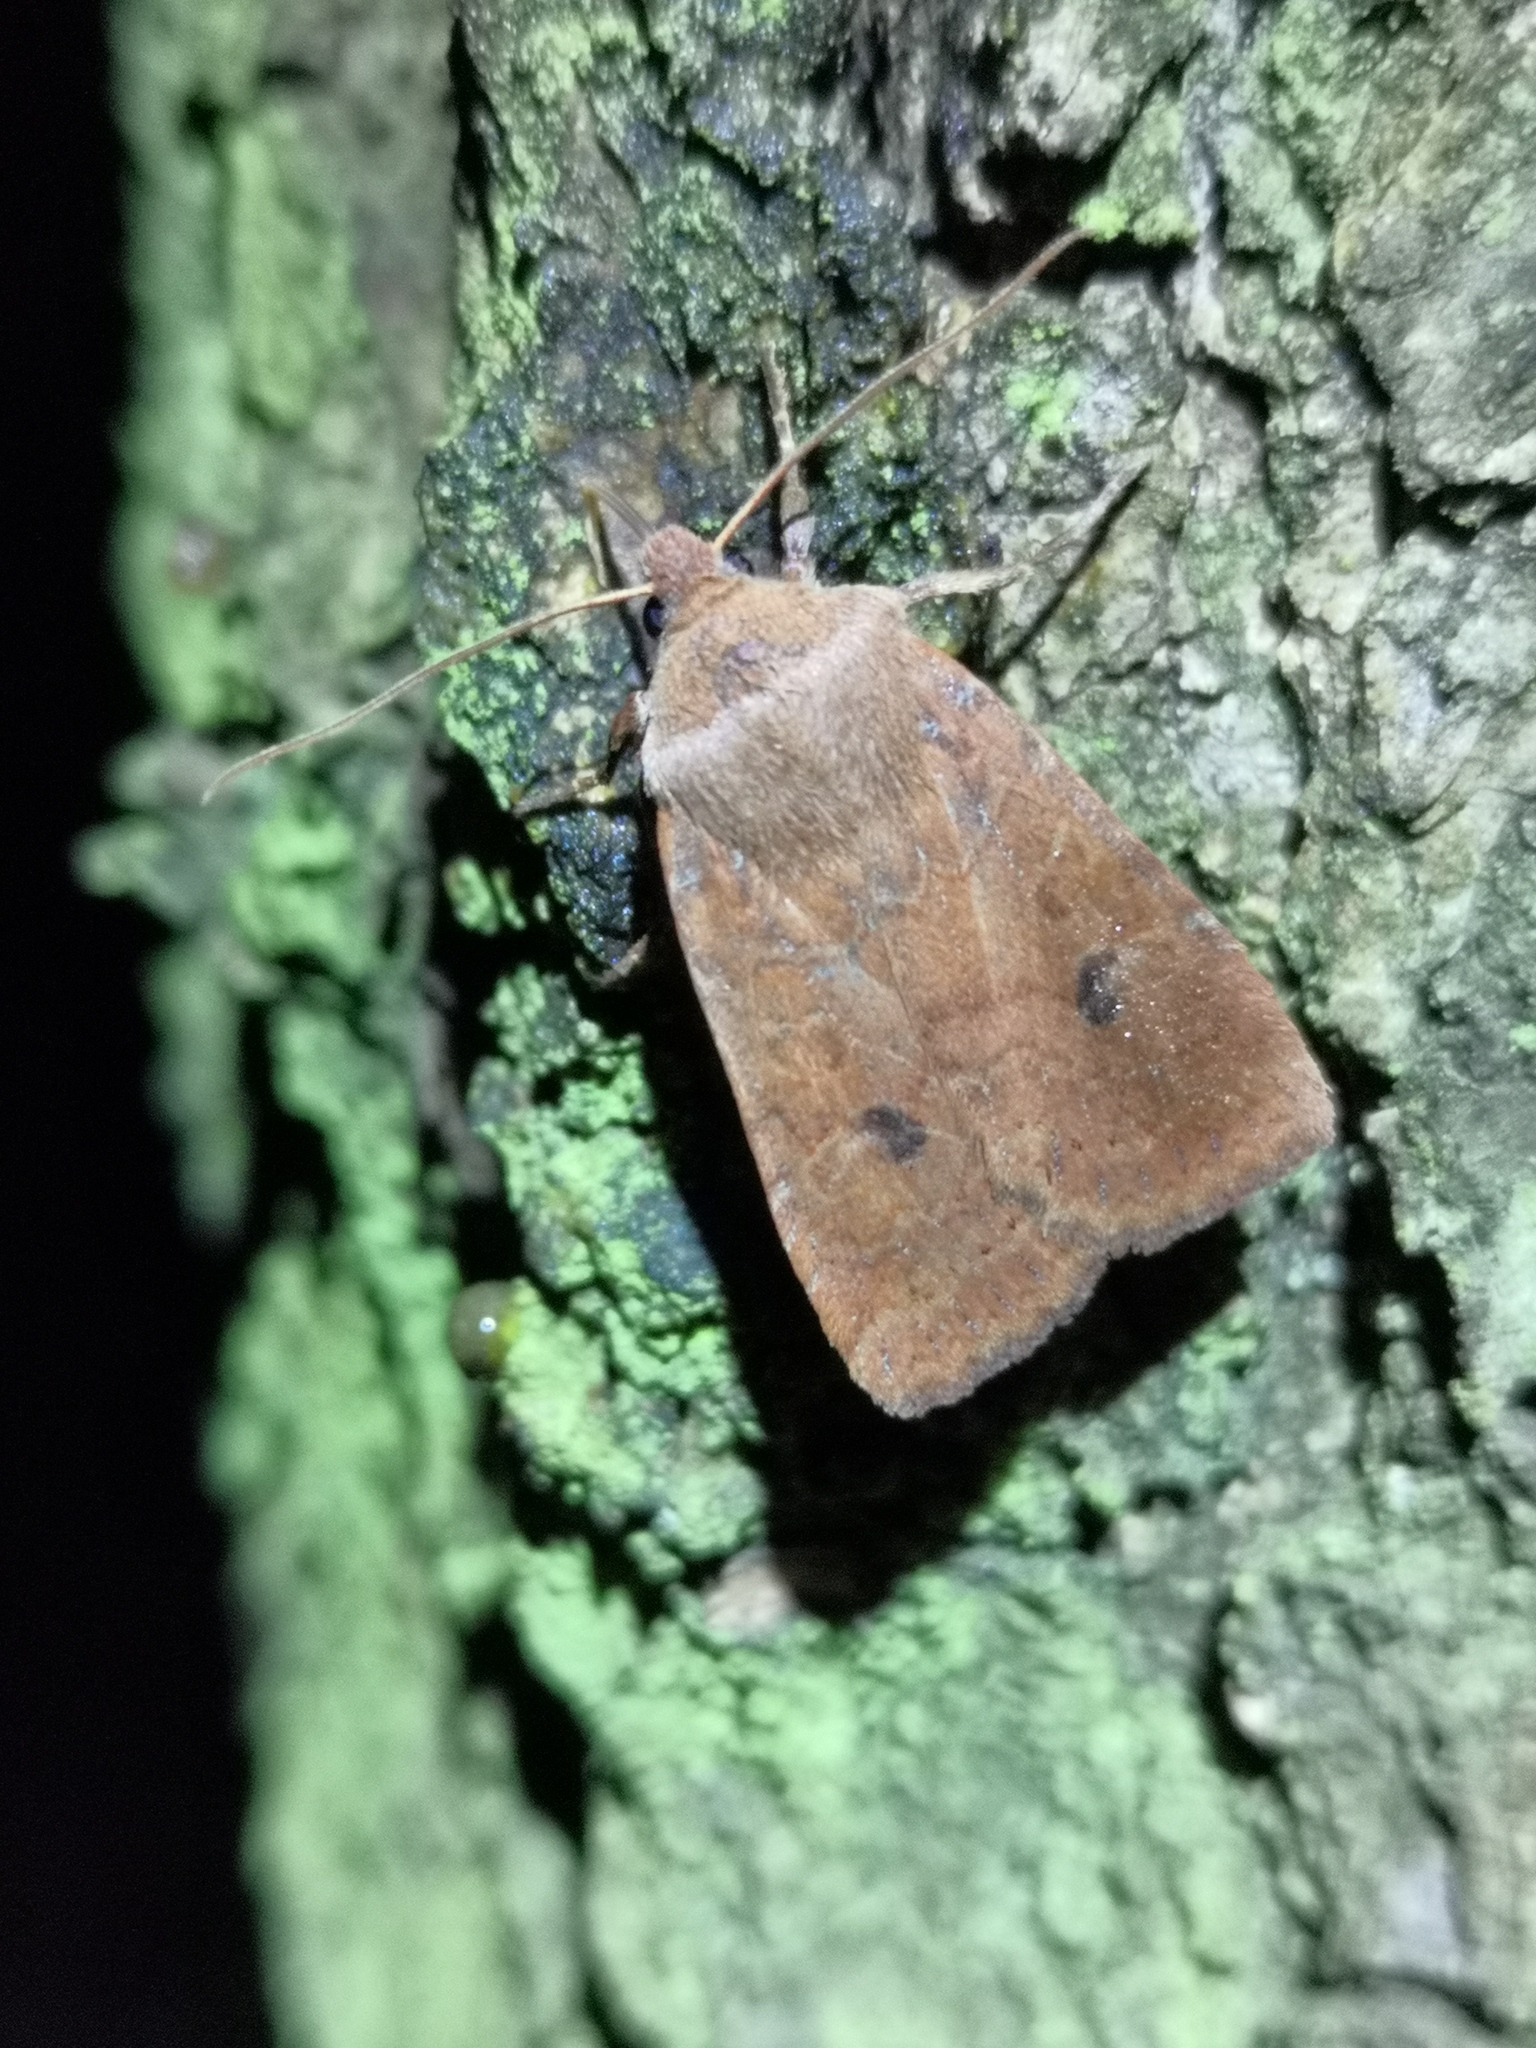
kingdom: Animalia
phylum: Arthropoda
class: Insecta
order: Lepidoptera
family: Noctuidae
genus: Conistra
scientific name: Conistra vaccinii
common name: Chestnut
